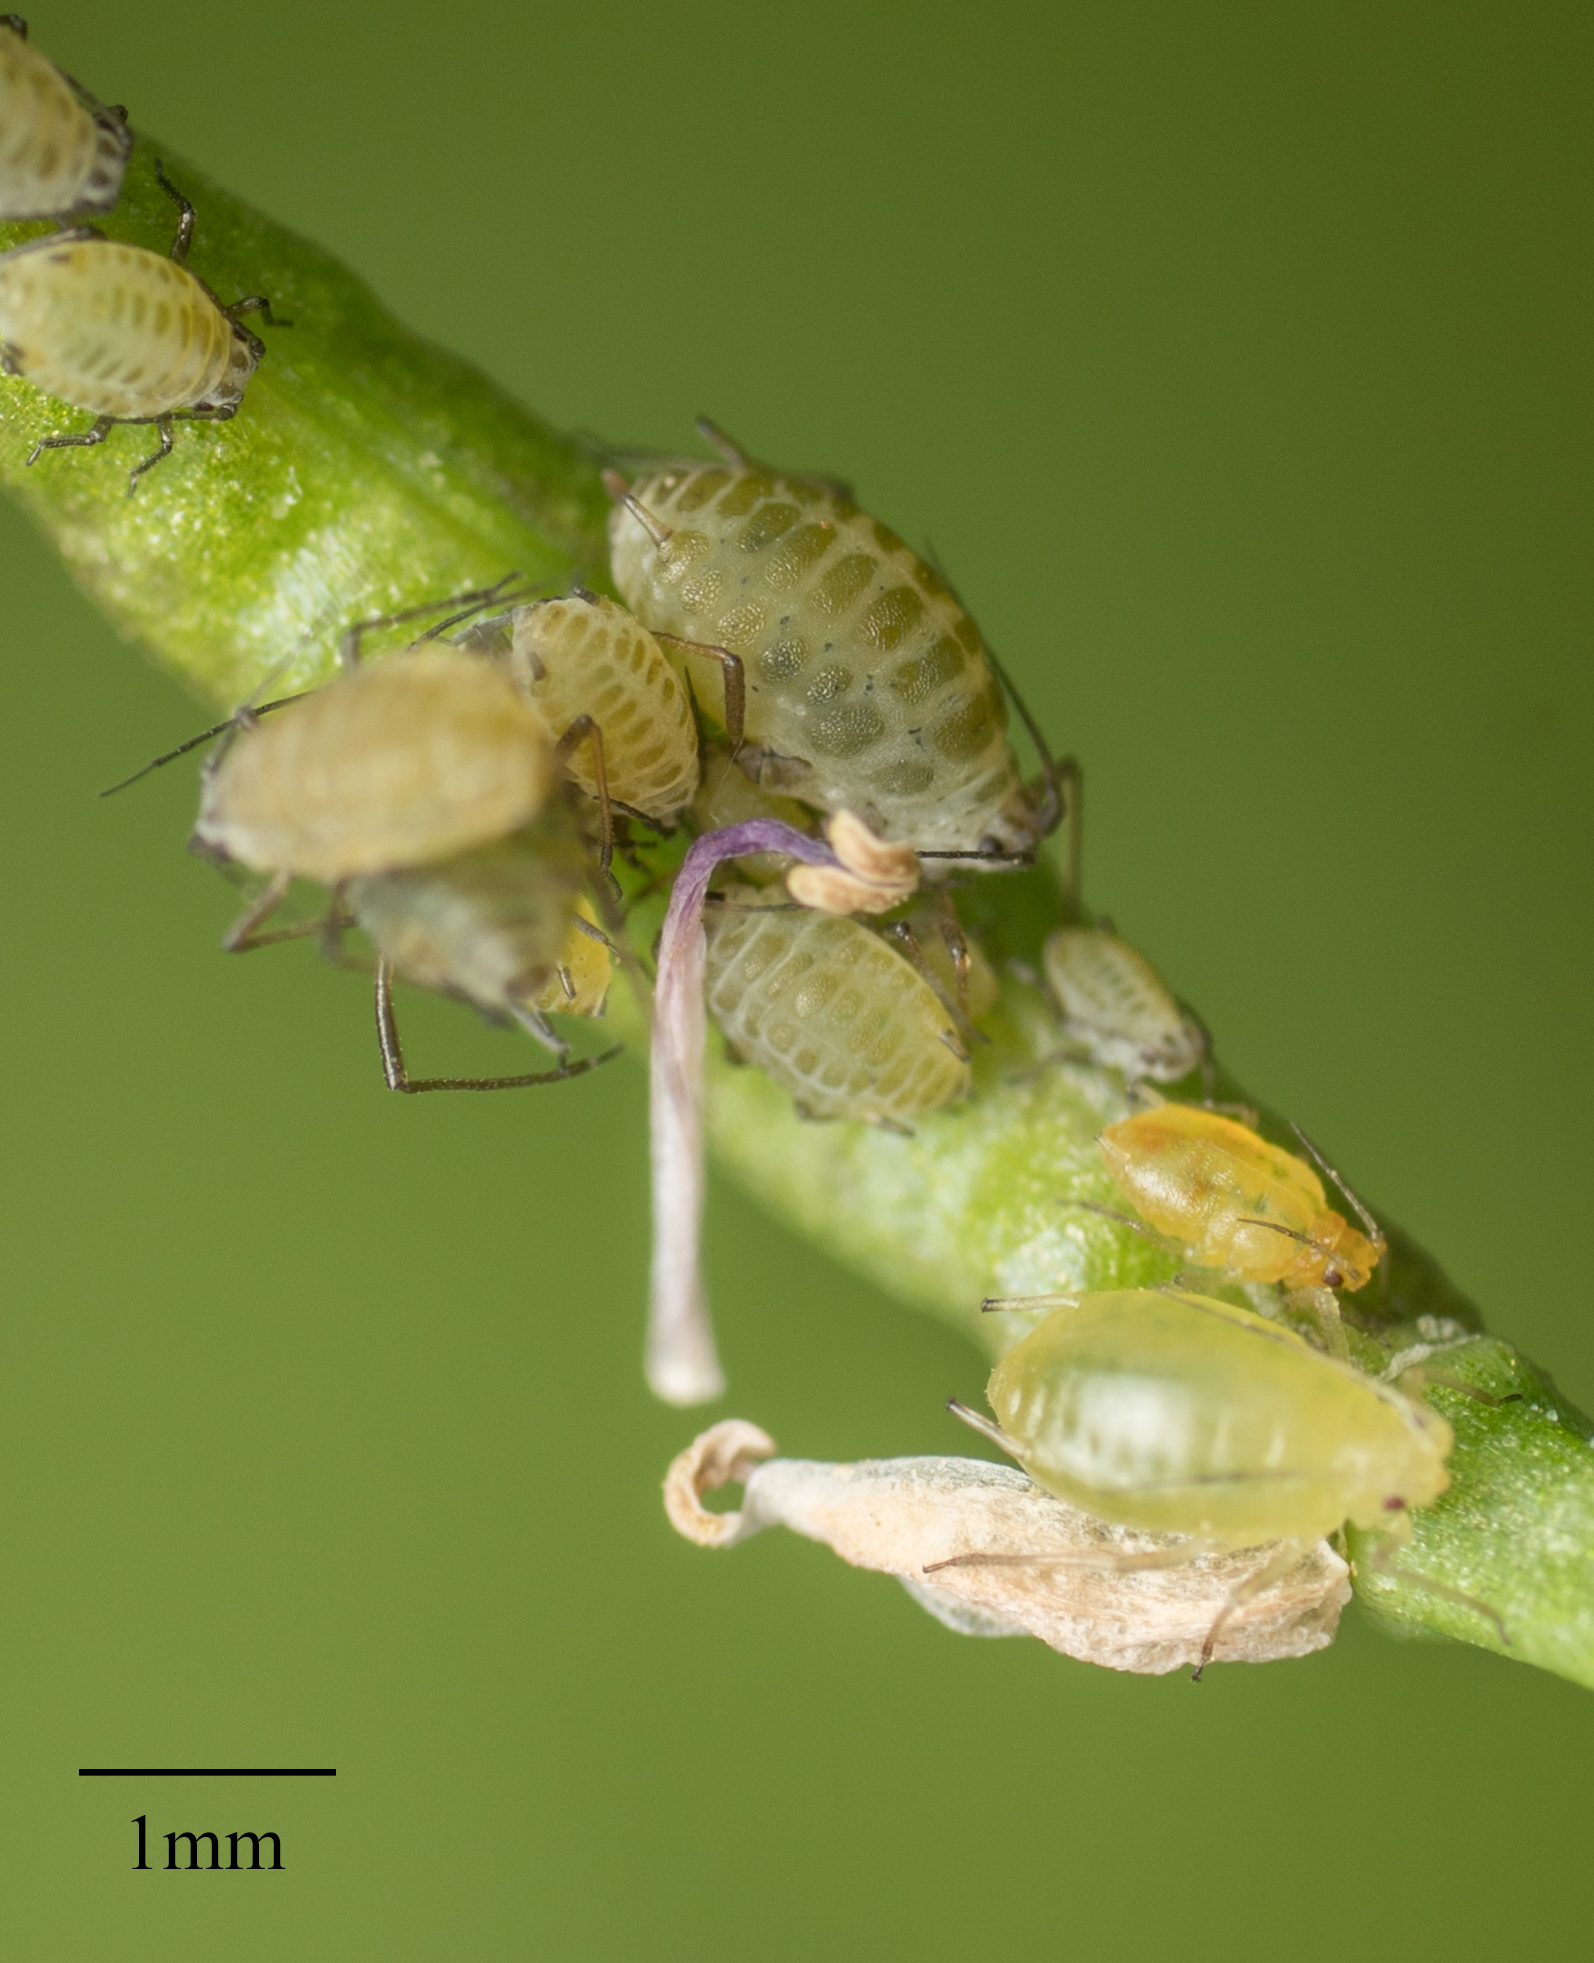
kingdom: Animalia
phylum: Arthropoda
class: Insecta
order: Hemiptera
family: Aphididae
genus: Lipaphis
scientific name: Lipaphis pseudobrassicae
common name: Turnip aphid
